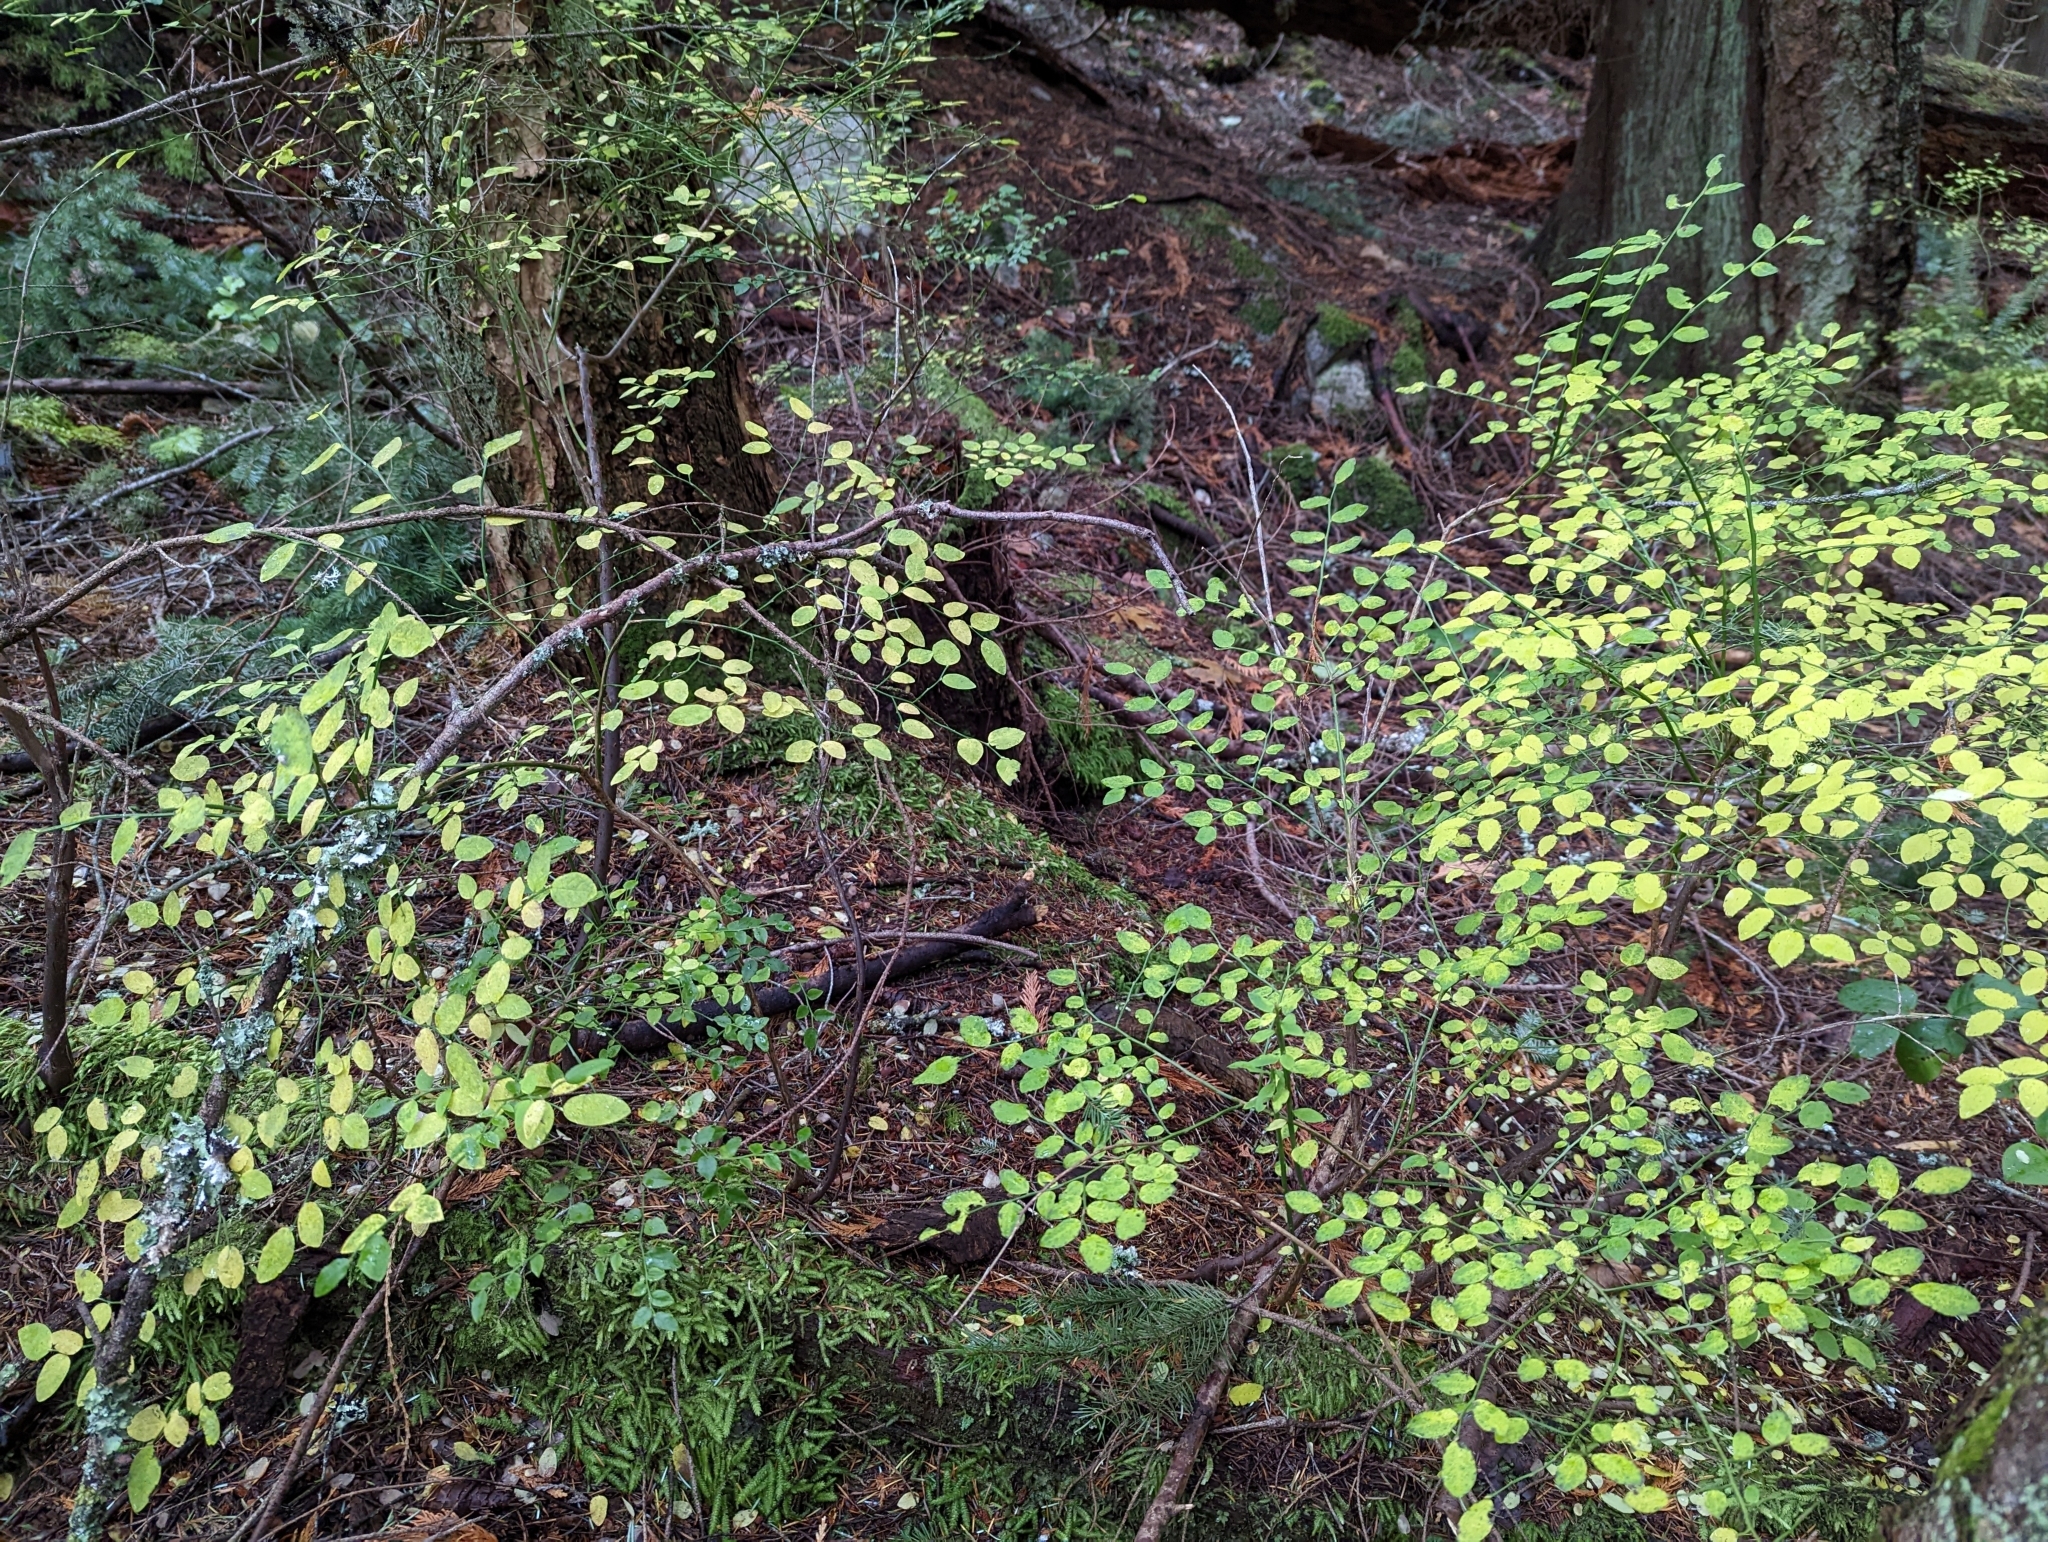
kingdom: Plantae
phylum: Tracheophyta
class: Magnoliopsida
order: Ericales
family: Ericaceae
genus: Vaccinium
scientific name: Vaccinium parvifolium
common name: Red-huckleberry
